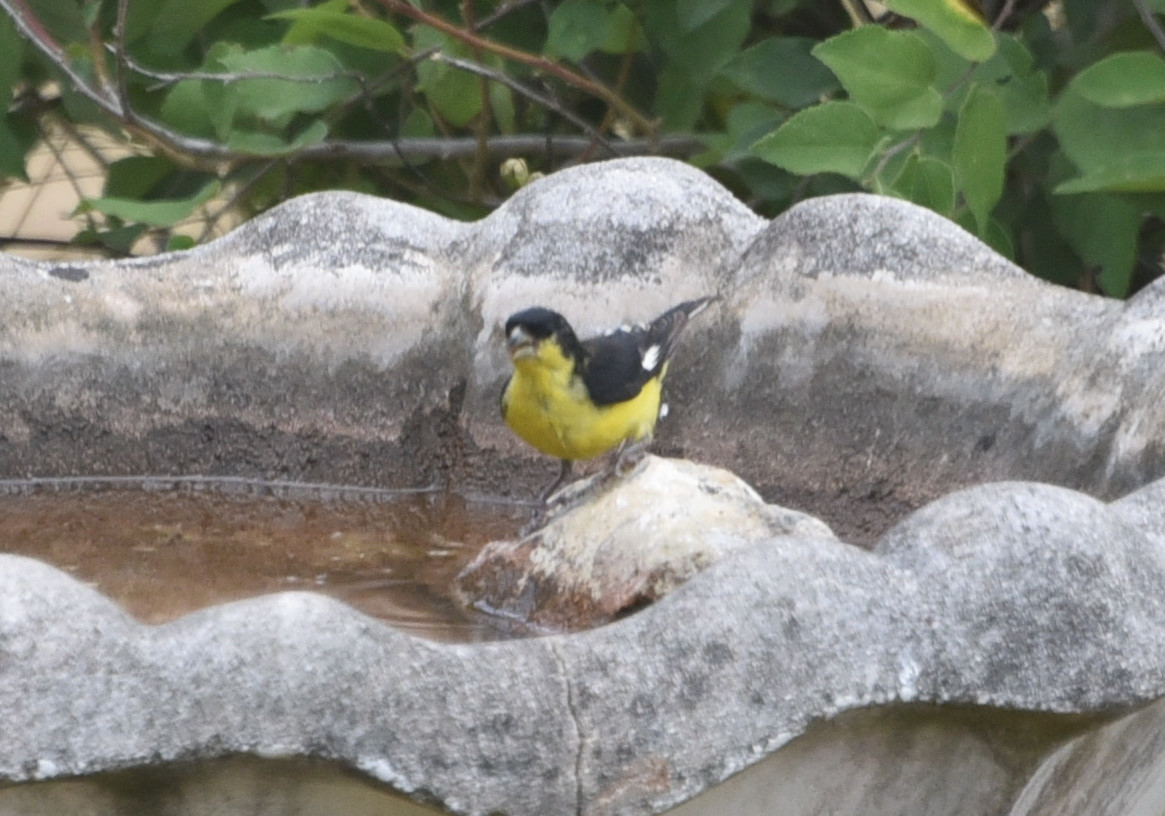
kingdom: Animalia
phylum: Chordata
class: Aves
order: Passeriformes
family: Fringillidae
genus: Spinus
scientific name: Spinus psaltria
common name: Lesser goldfinch
